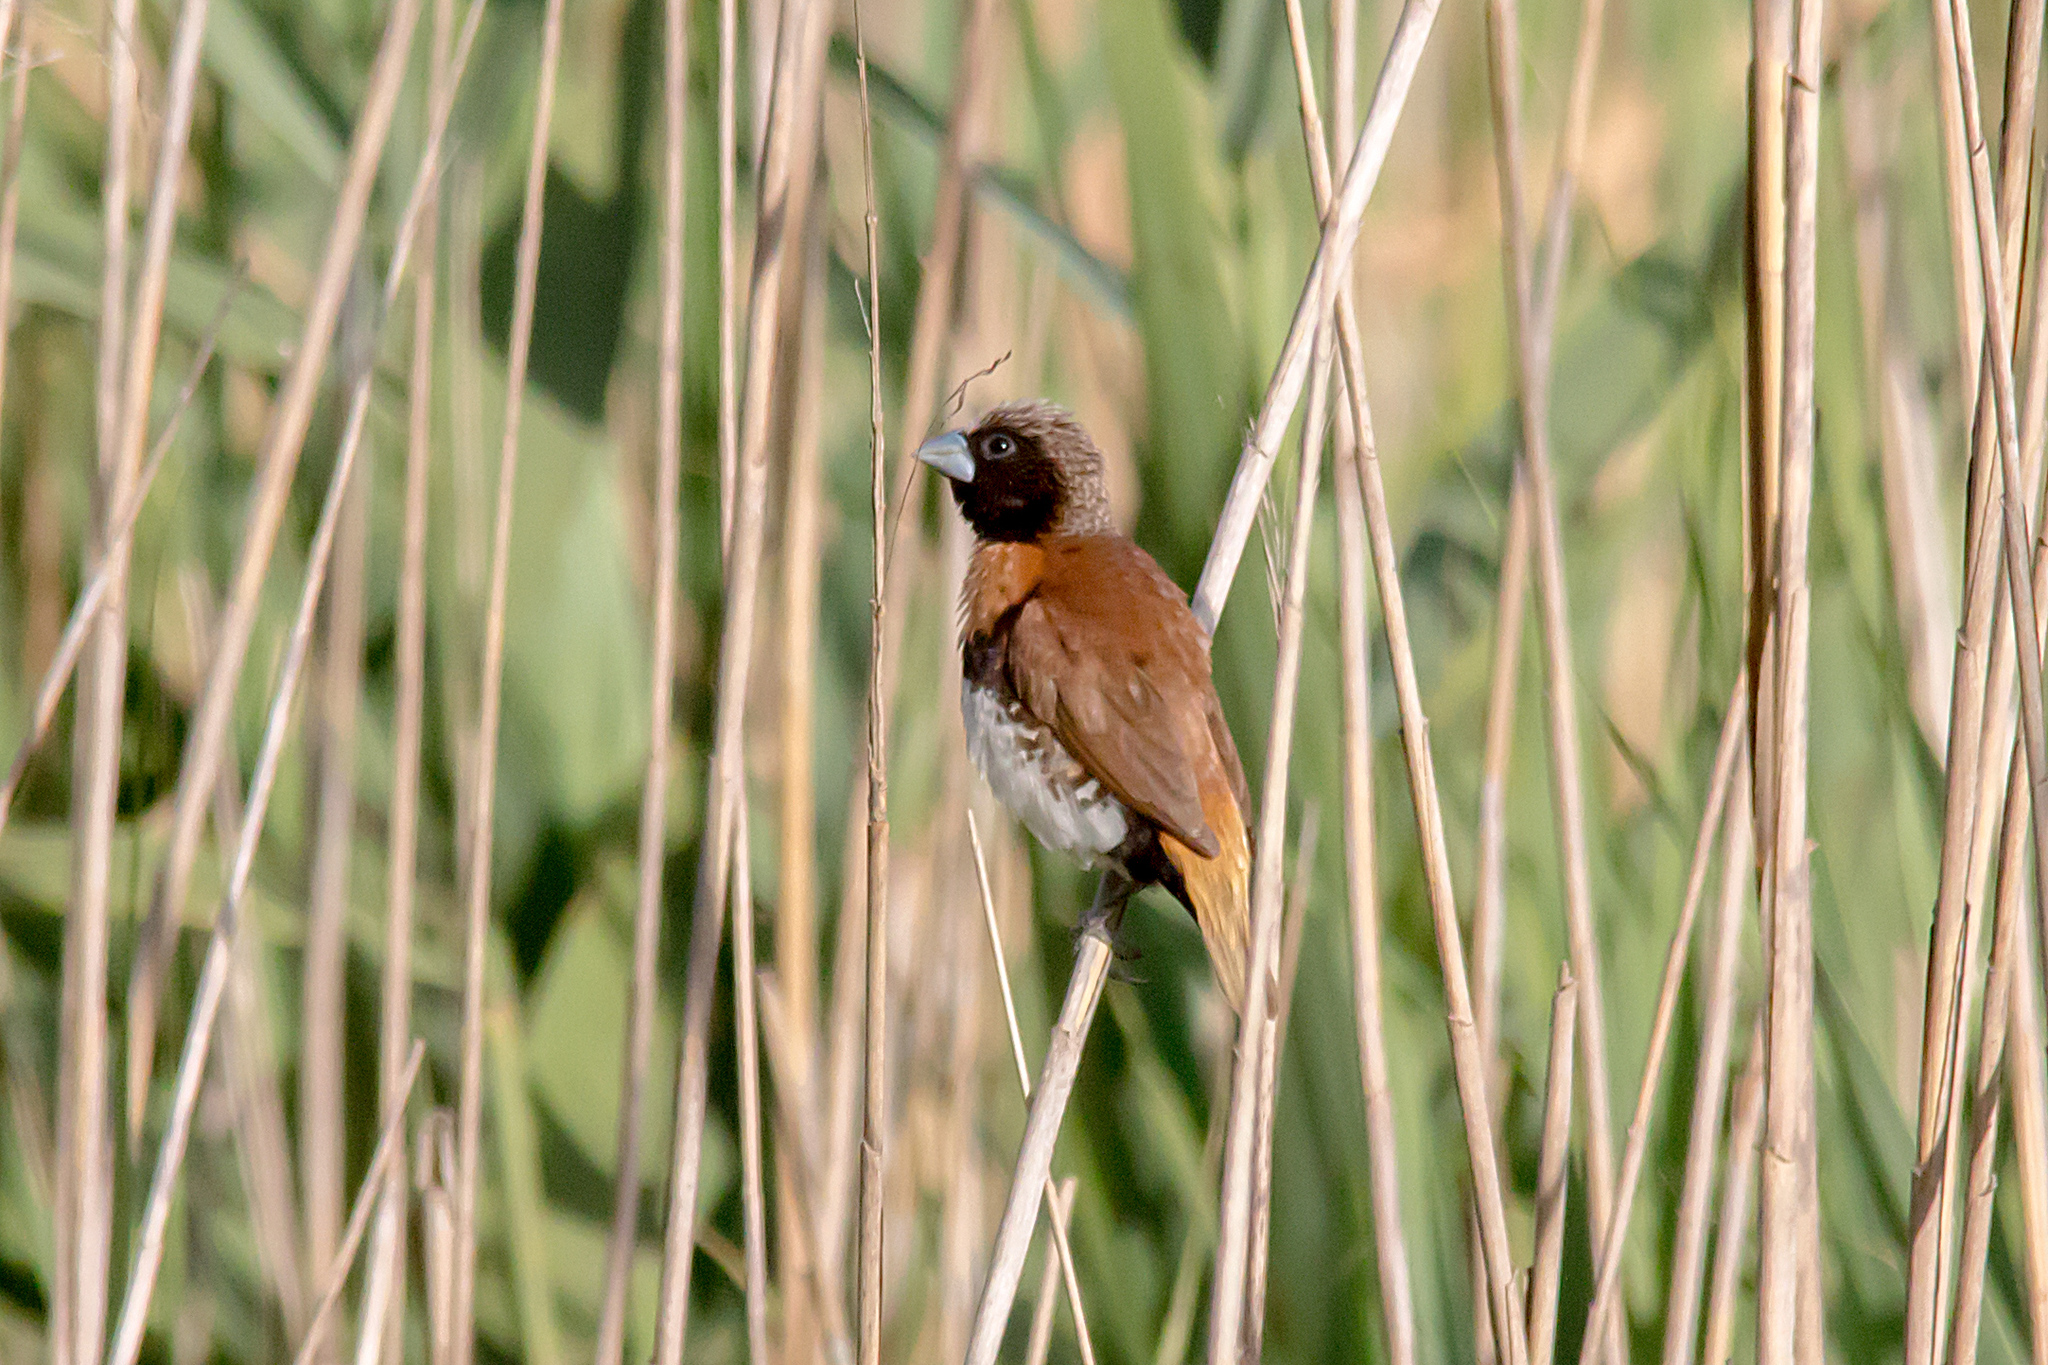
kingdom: Animalia
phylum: Chordata
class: Aves
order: Passeriformes
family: Estrildidae
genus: Lonchura
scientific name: Lonchura castaneothorax
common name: Chestnut-breasted mannikin
